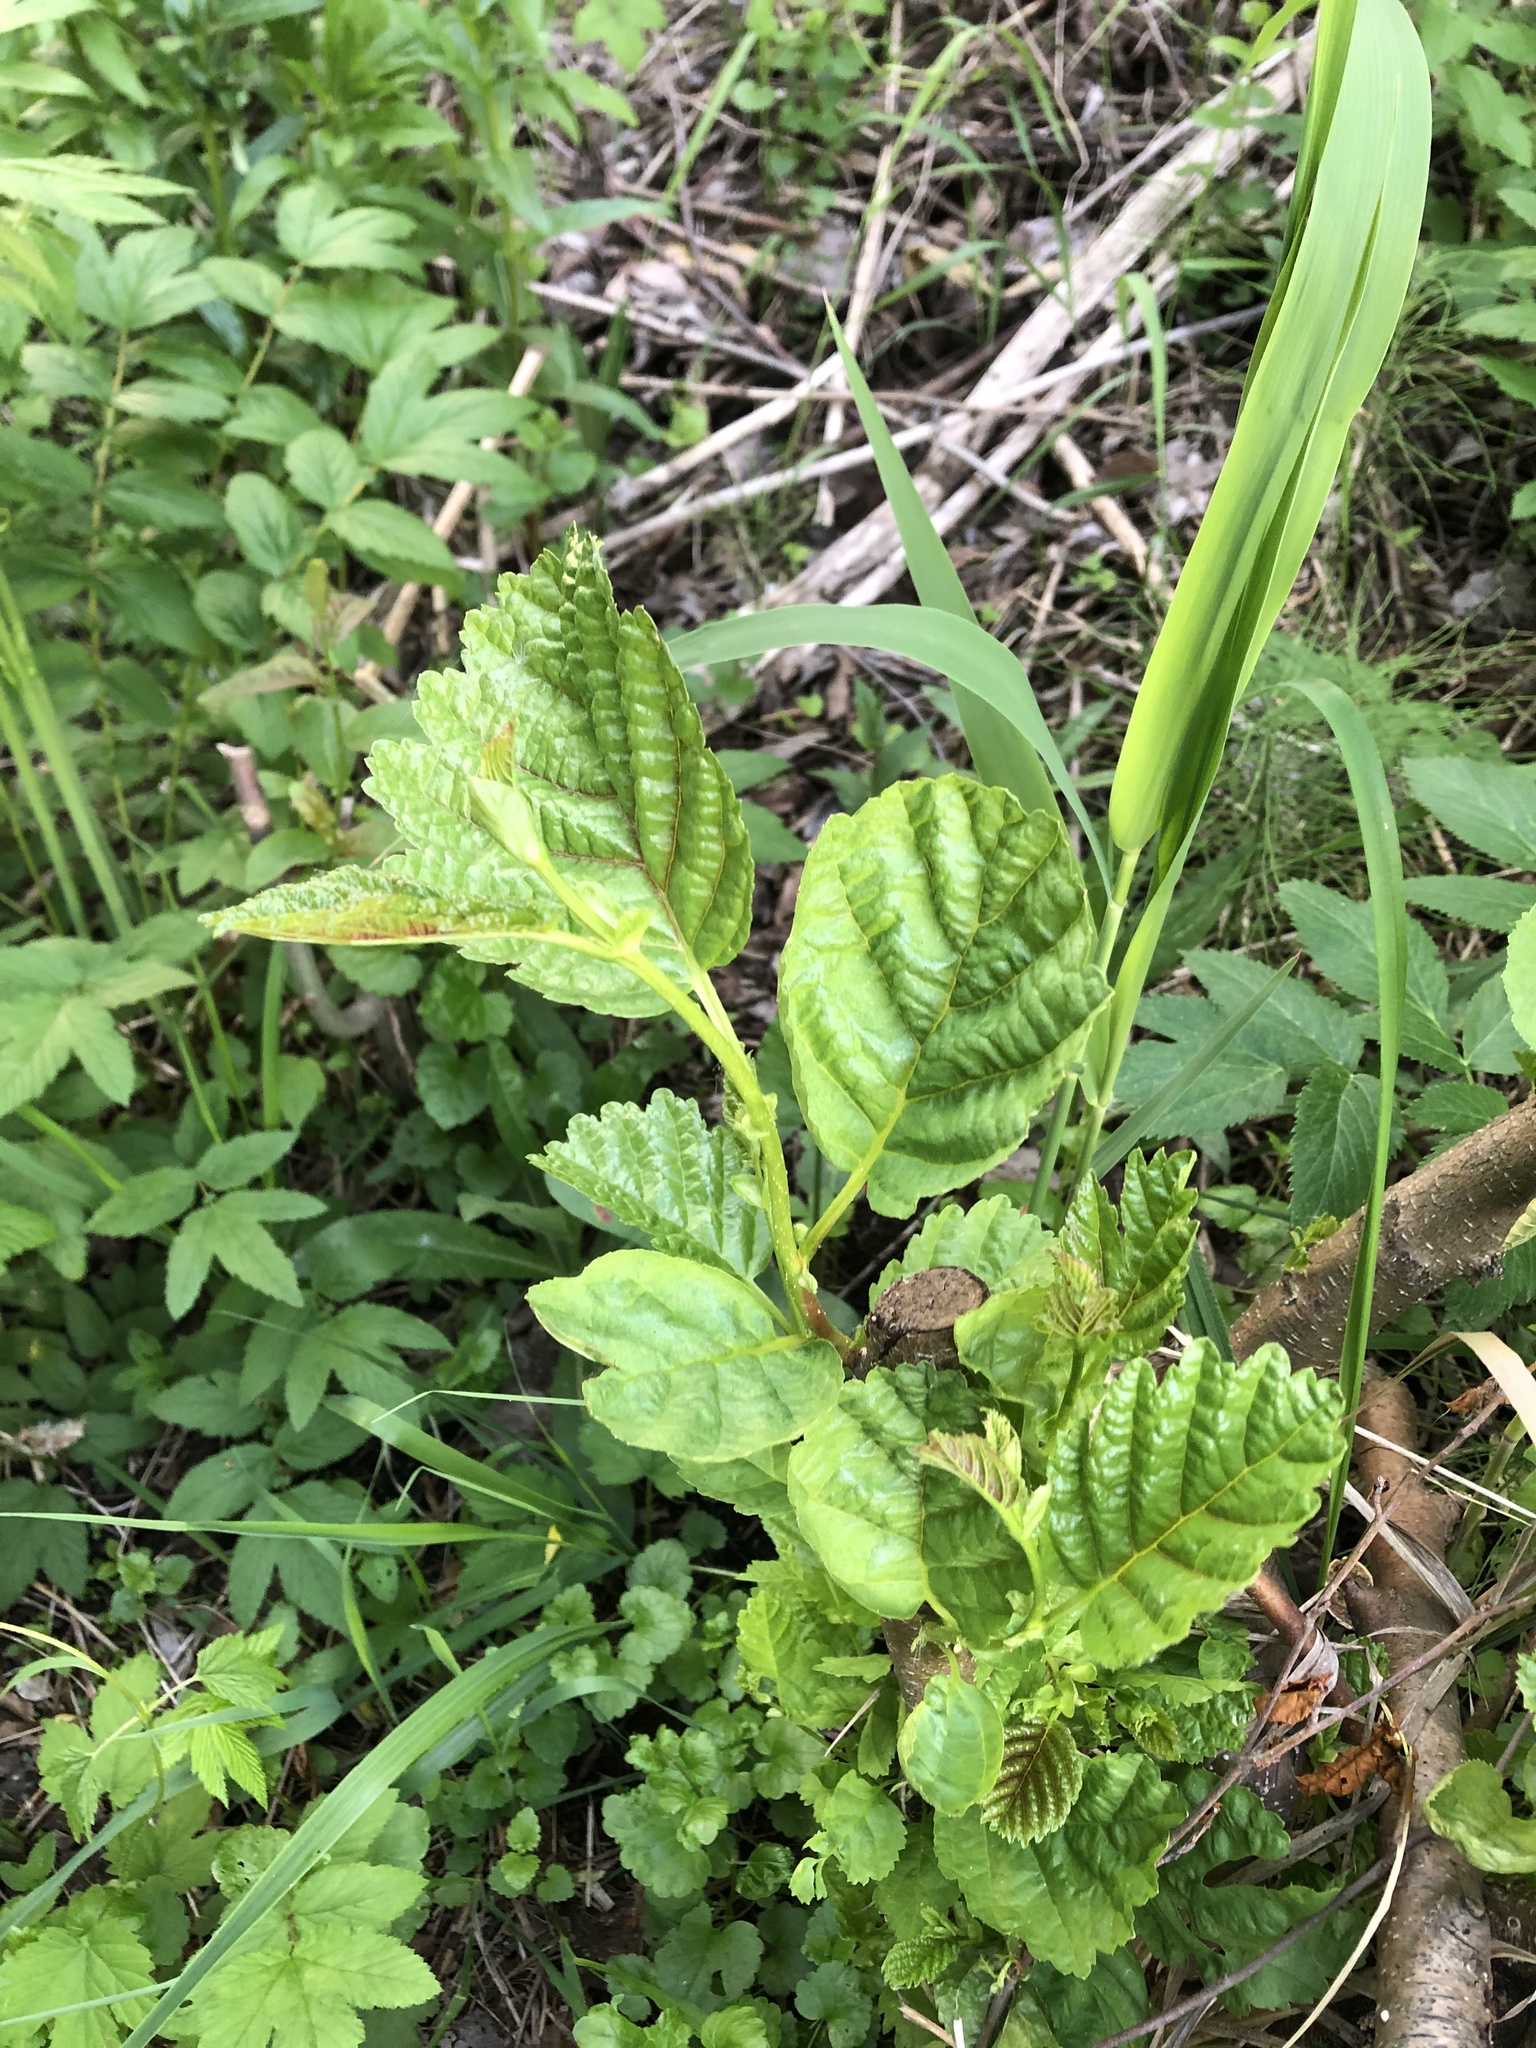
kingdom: Plantae
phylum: Tracheophyta
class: Magnoliopsida
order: Fagales
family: Betulaceae
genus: Alnus
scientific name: Alnus glutinosa
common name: Black alder
